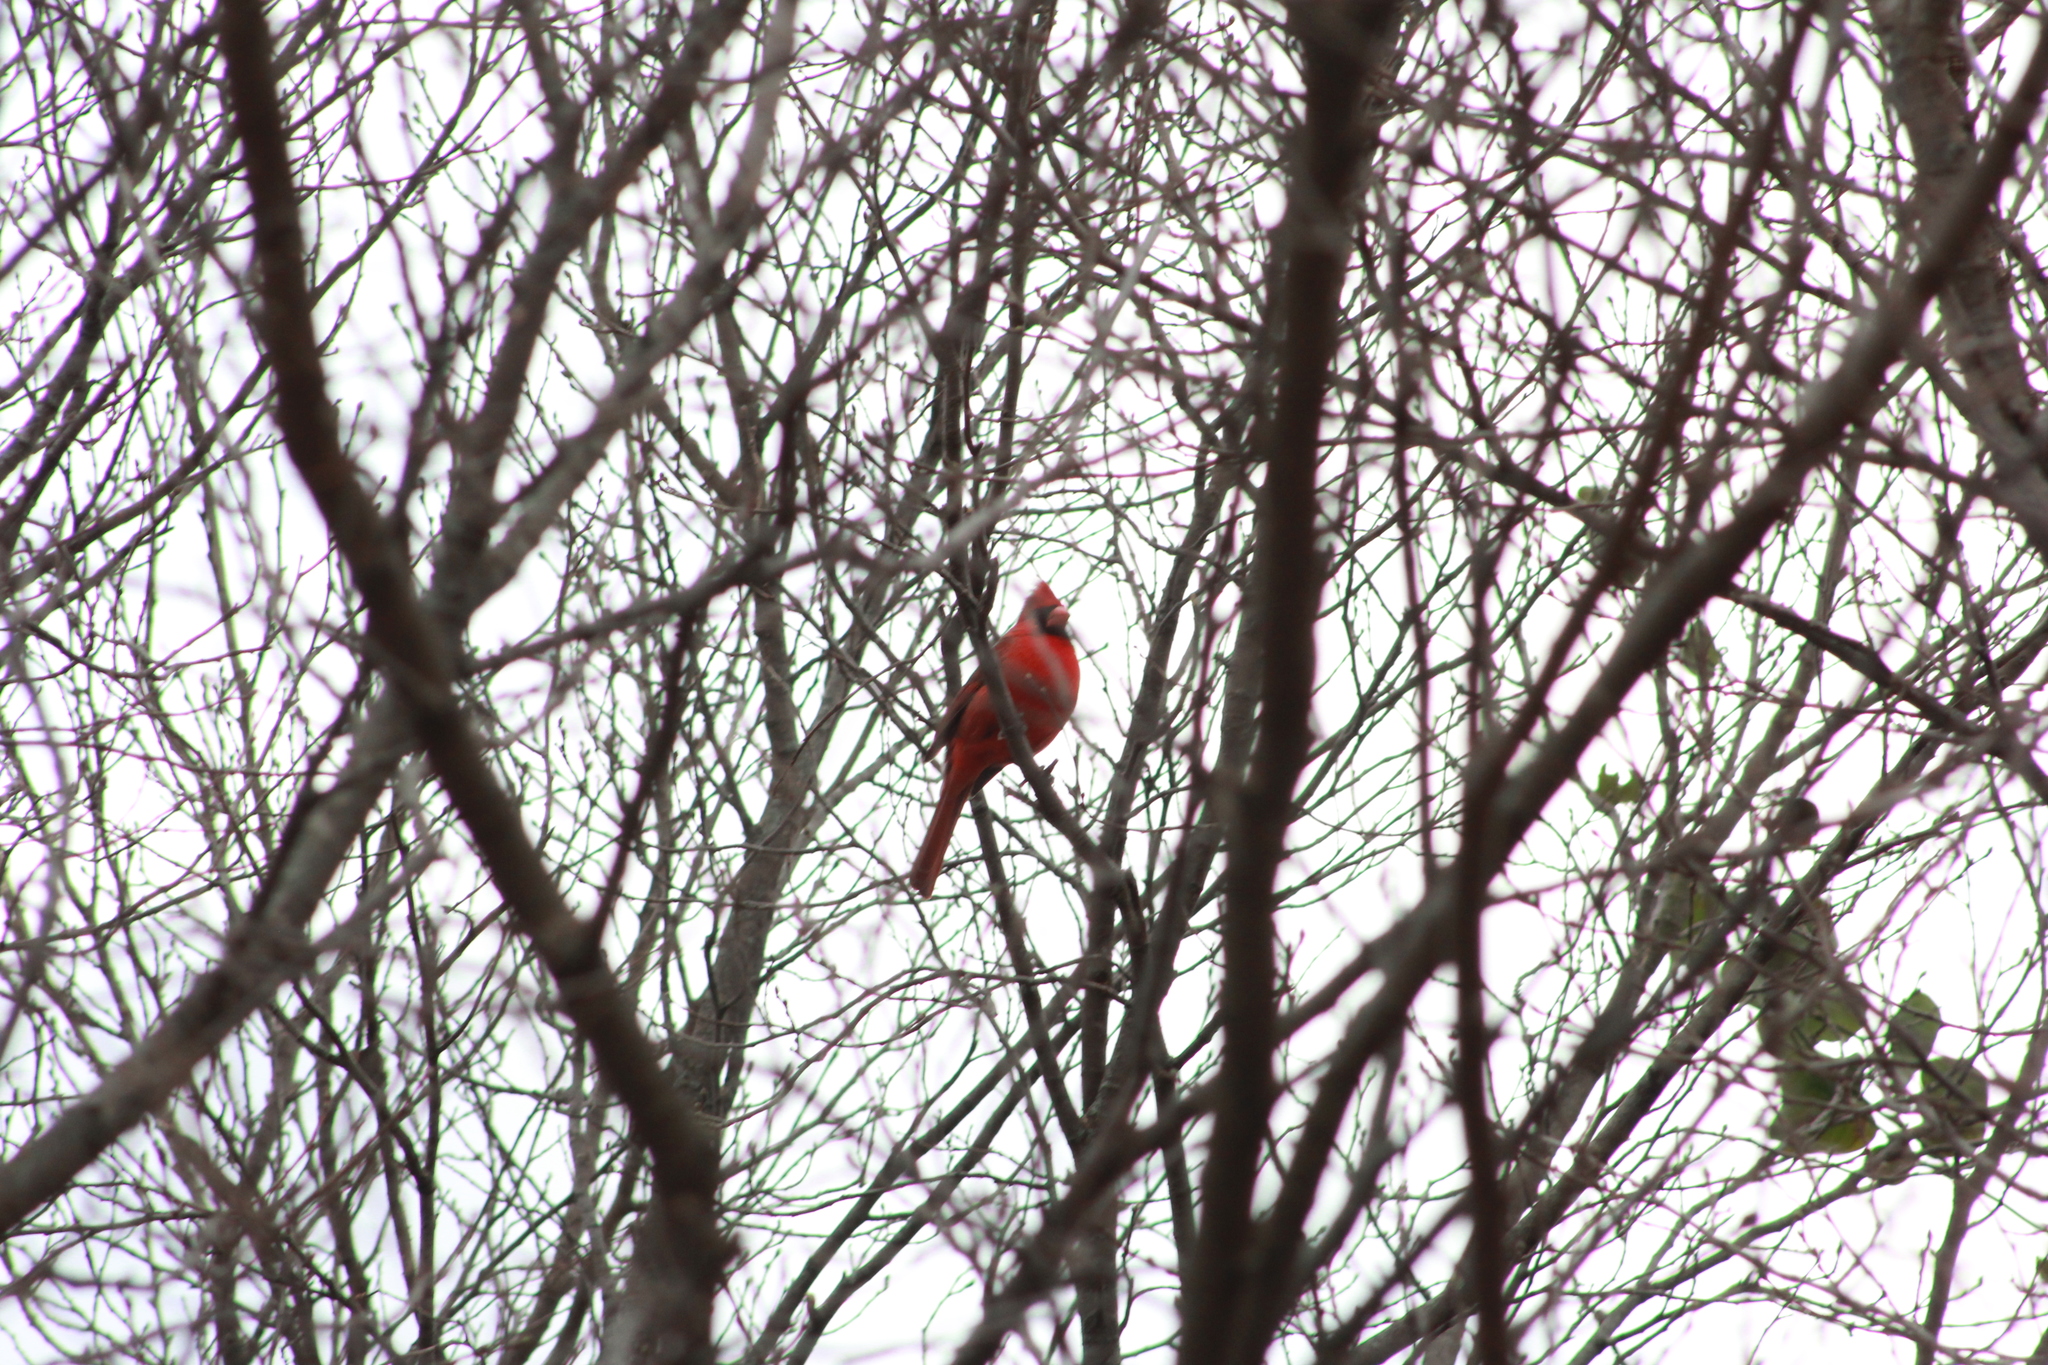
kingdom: Animalia
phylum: Chordata
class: Aves
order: Passeriformes
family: Cardinalidae
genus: Cardinalis
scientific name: Cardinalis cardinalis
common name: Northern cardinal
